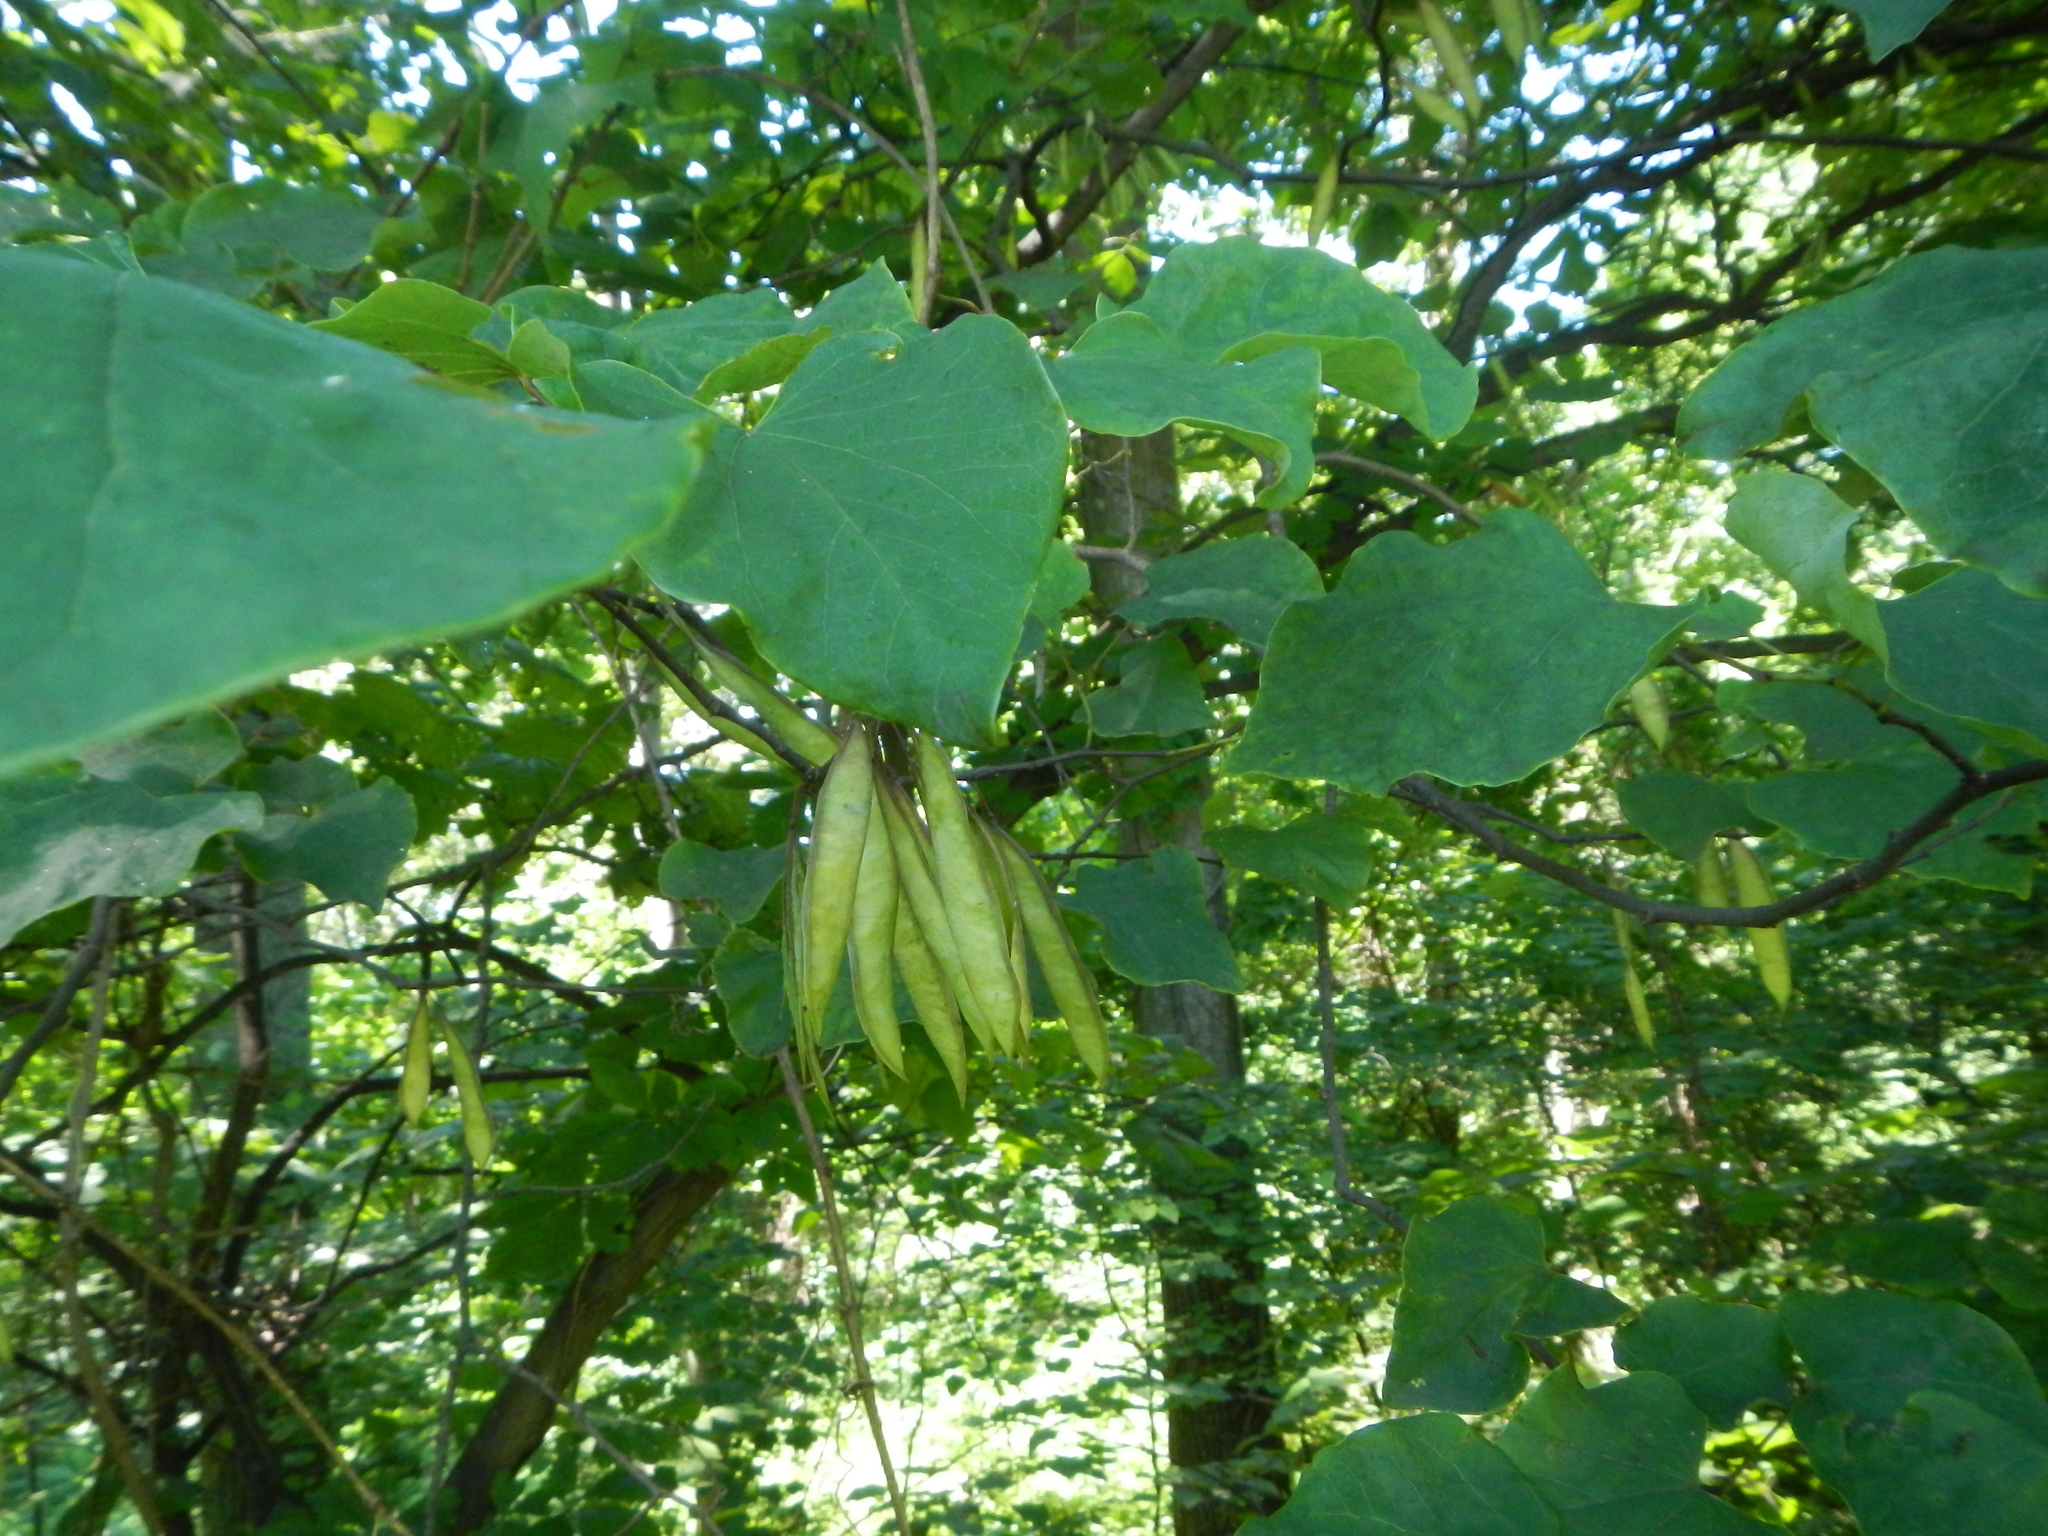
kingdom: Plantae
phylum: Tracheophyta
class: Magnoliopsida
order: Fabales
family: Fabaceae
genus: Cercis
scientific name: Cercis canadensis
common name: Eastern redbud
